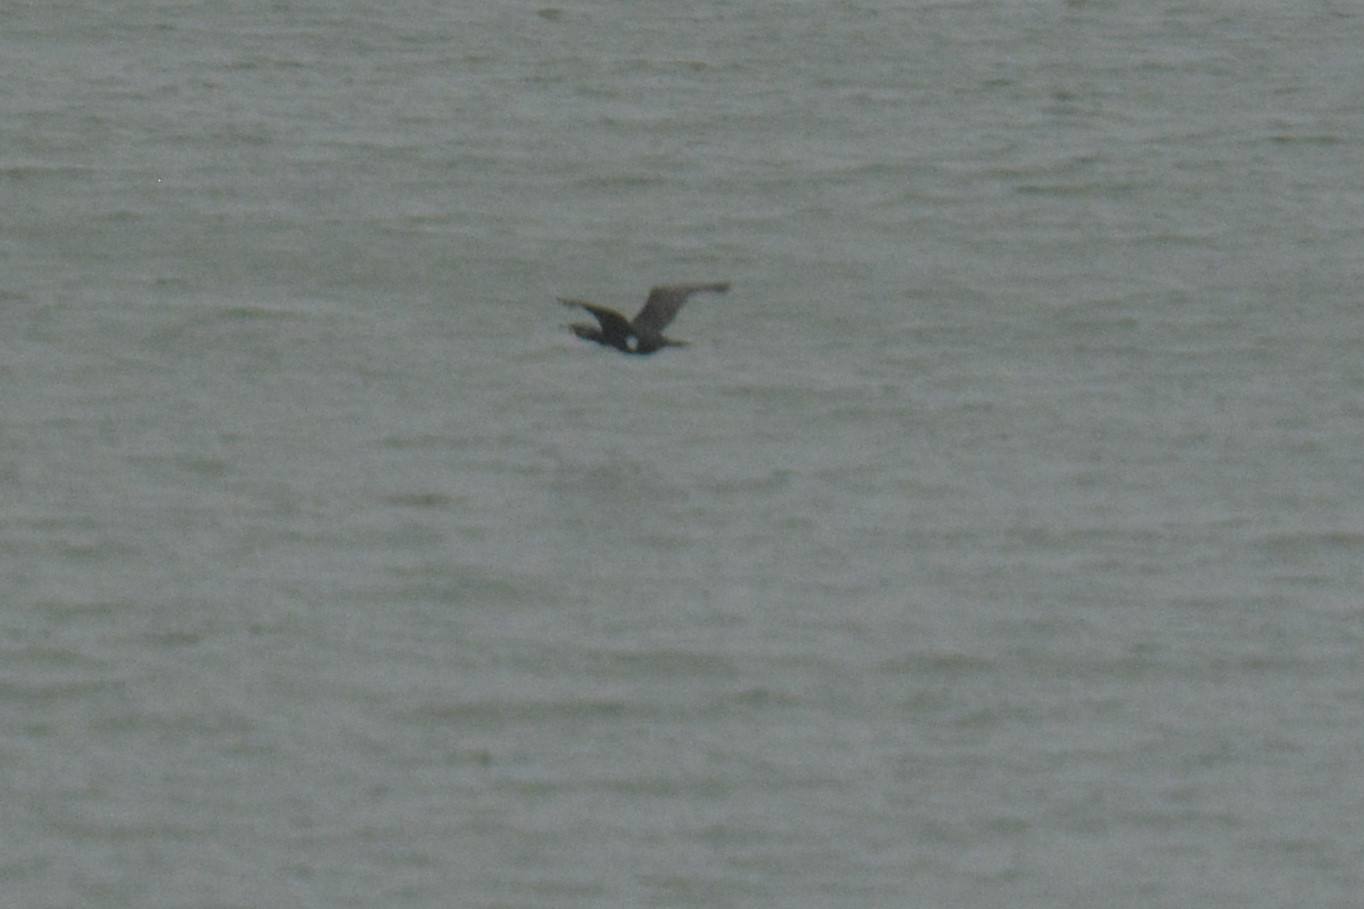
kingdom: Animalia
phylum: Chordata
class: Aves
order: Suliformes
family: Phalacrocoracidae
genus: Phalacrocorax
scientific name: Phalacrocorax carbo
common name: Great cormorant
